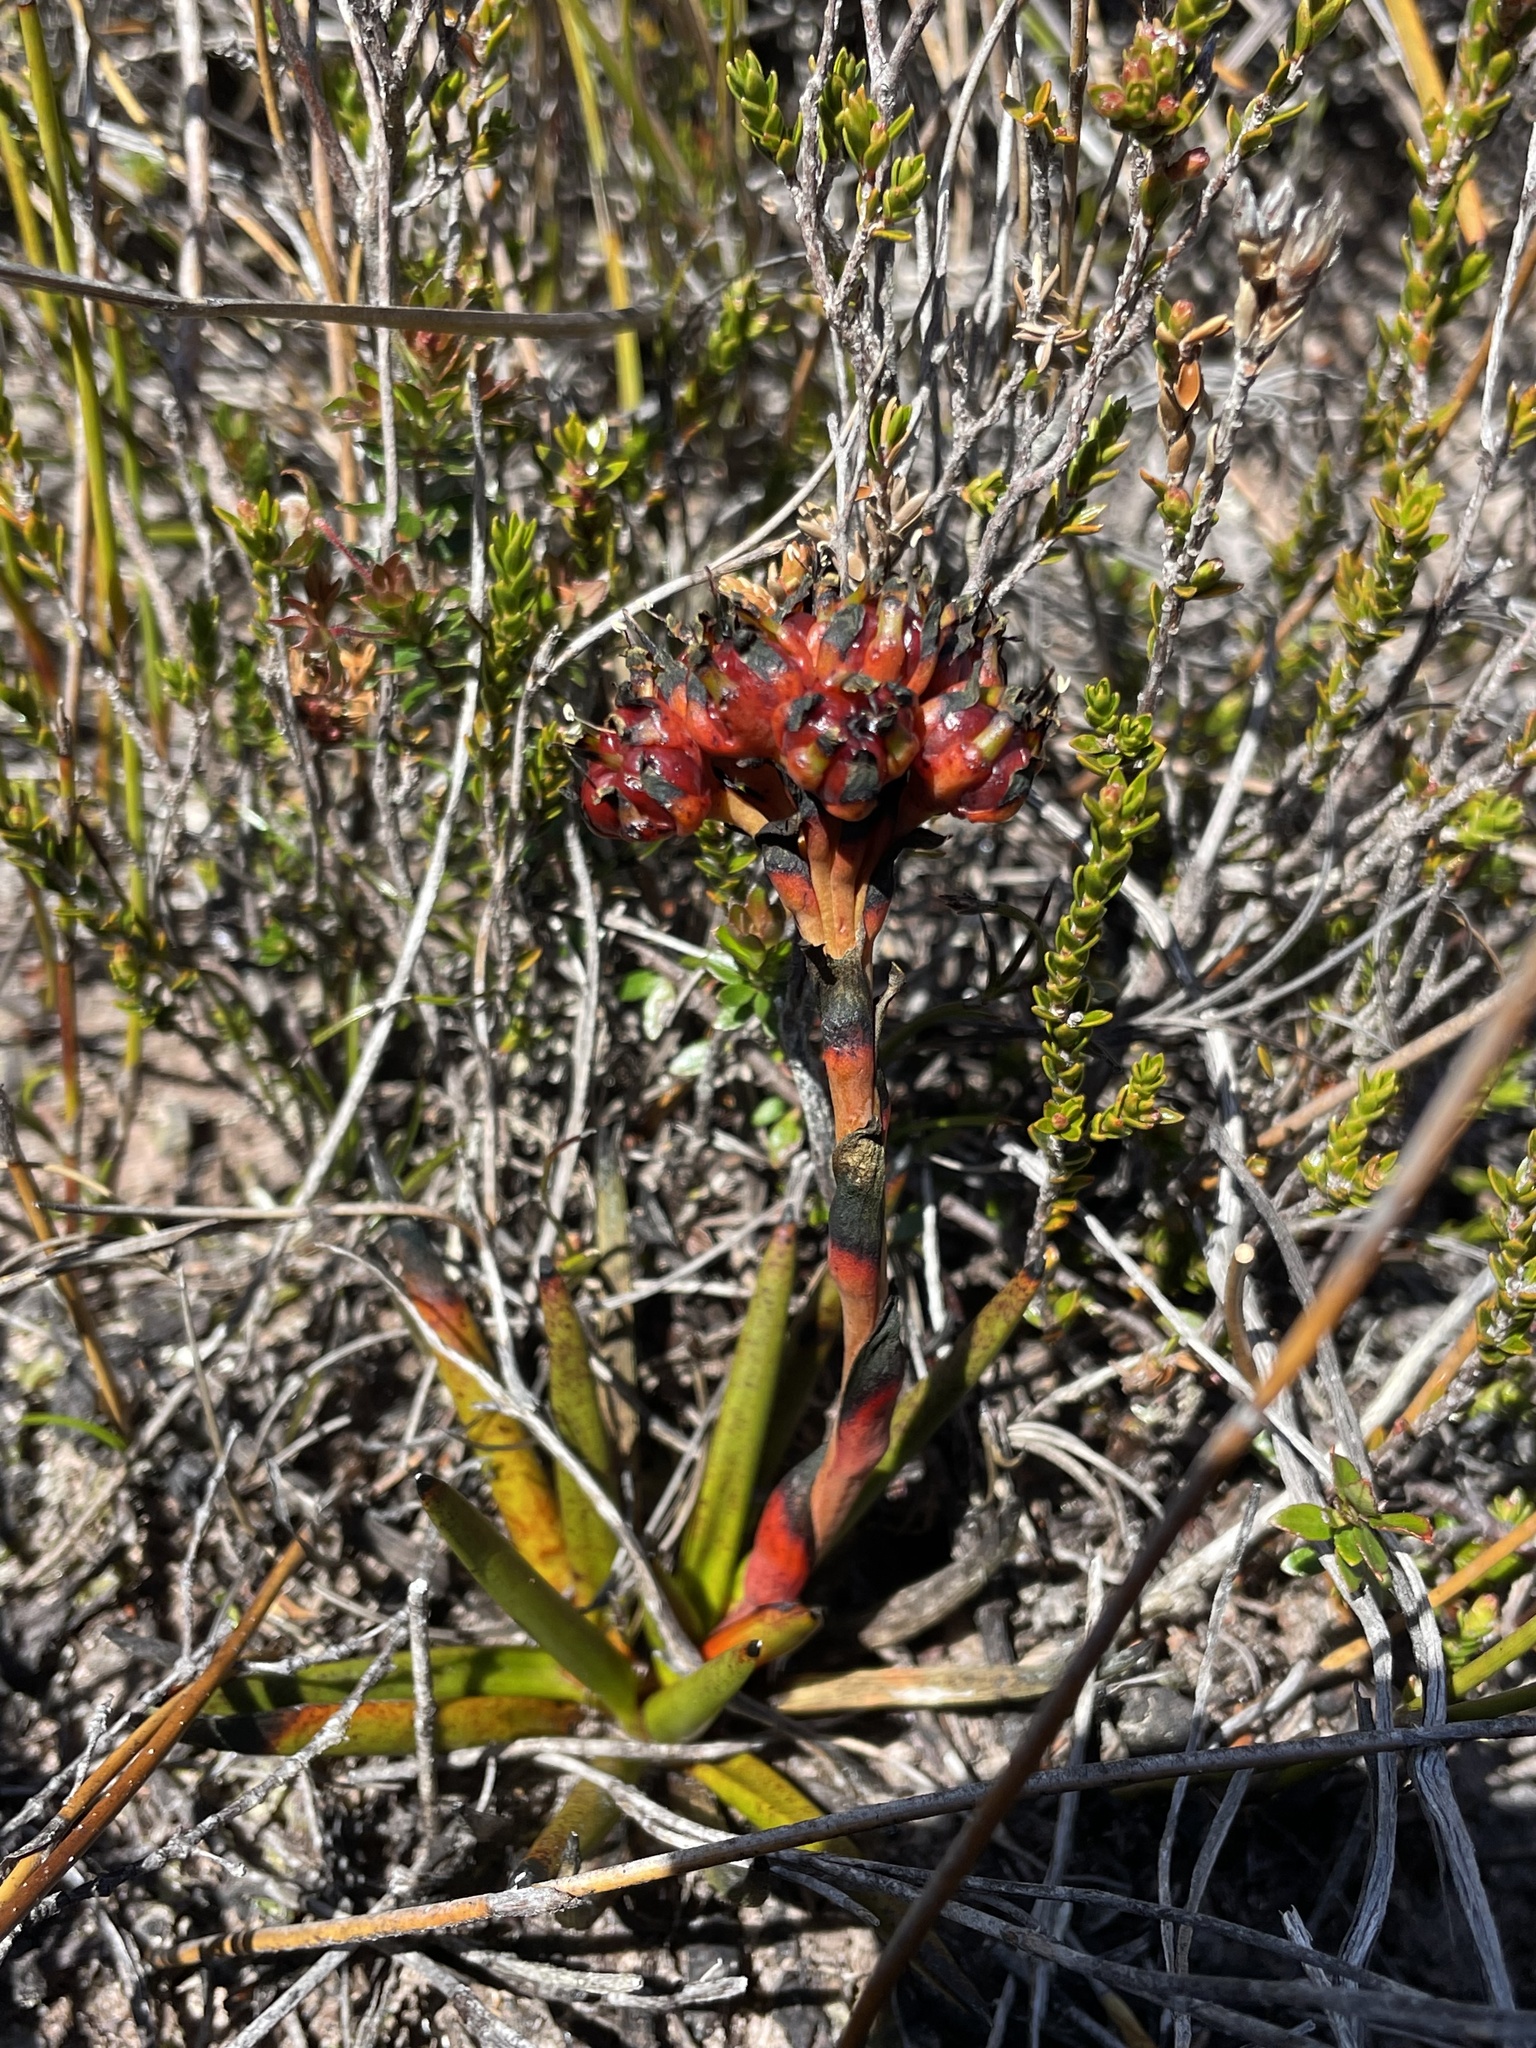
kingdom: Plantae
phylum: Tracheophyta
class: Liliopsida
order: Commelinales
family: Haemodoraceae
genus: Haemodorum
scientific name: Haemodorum distichophyllum
